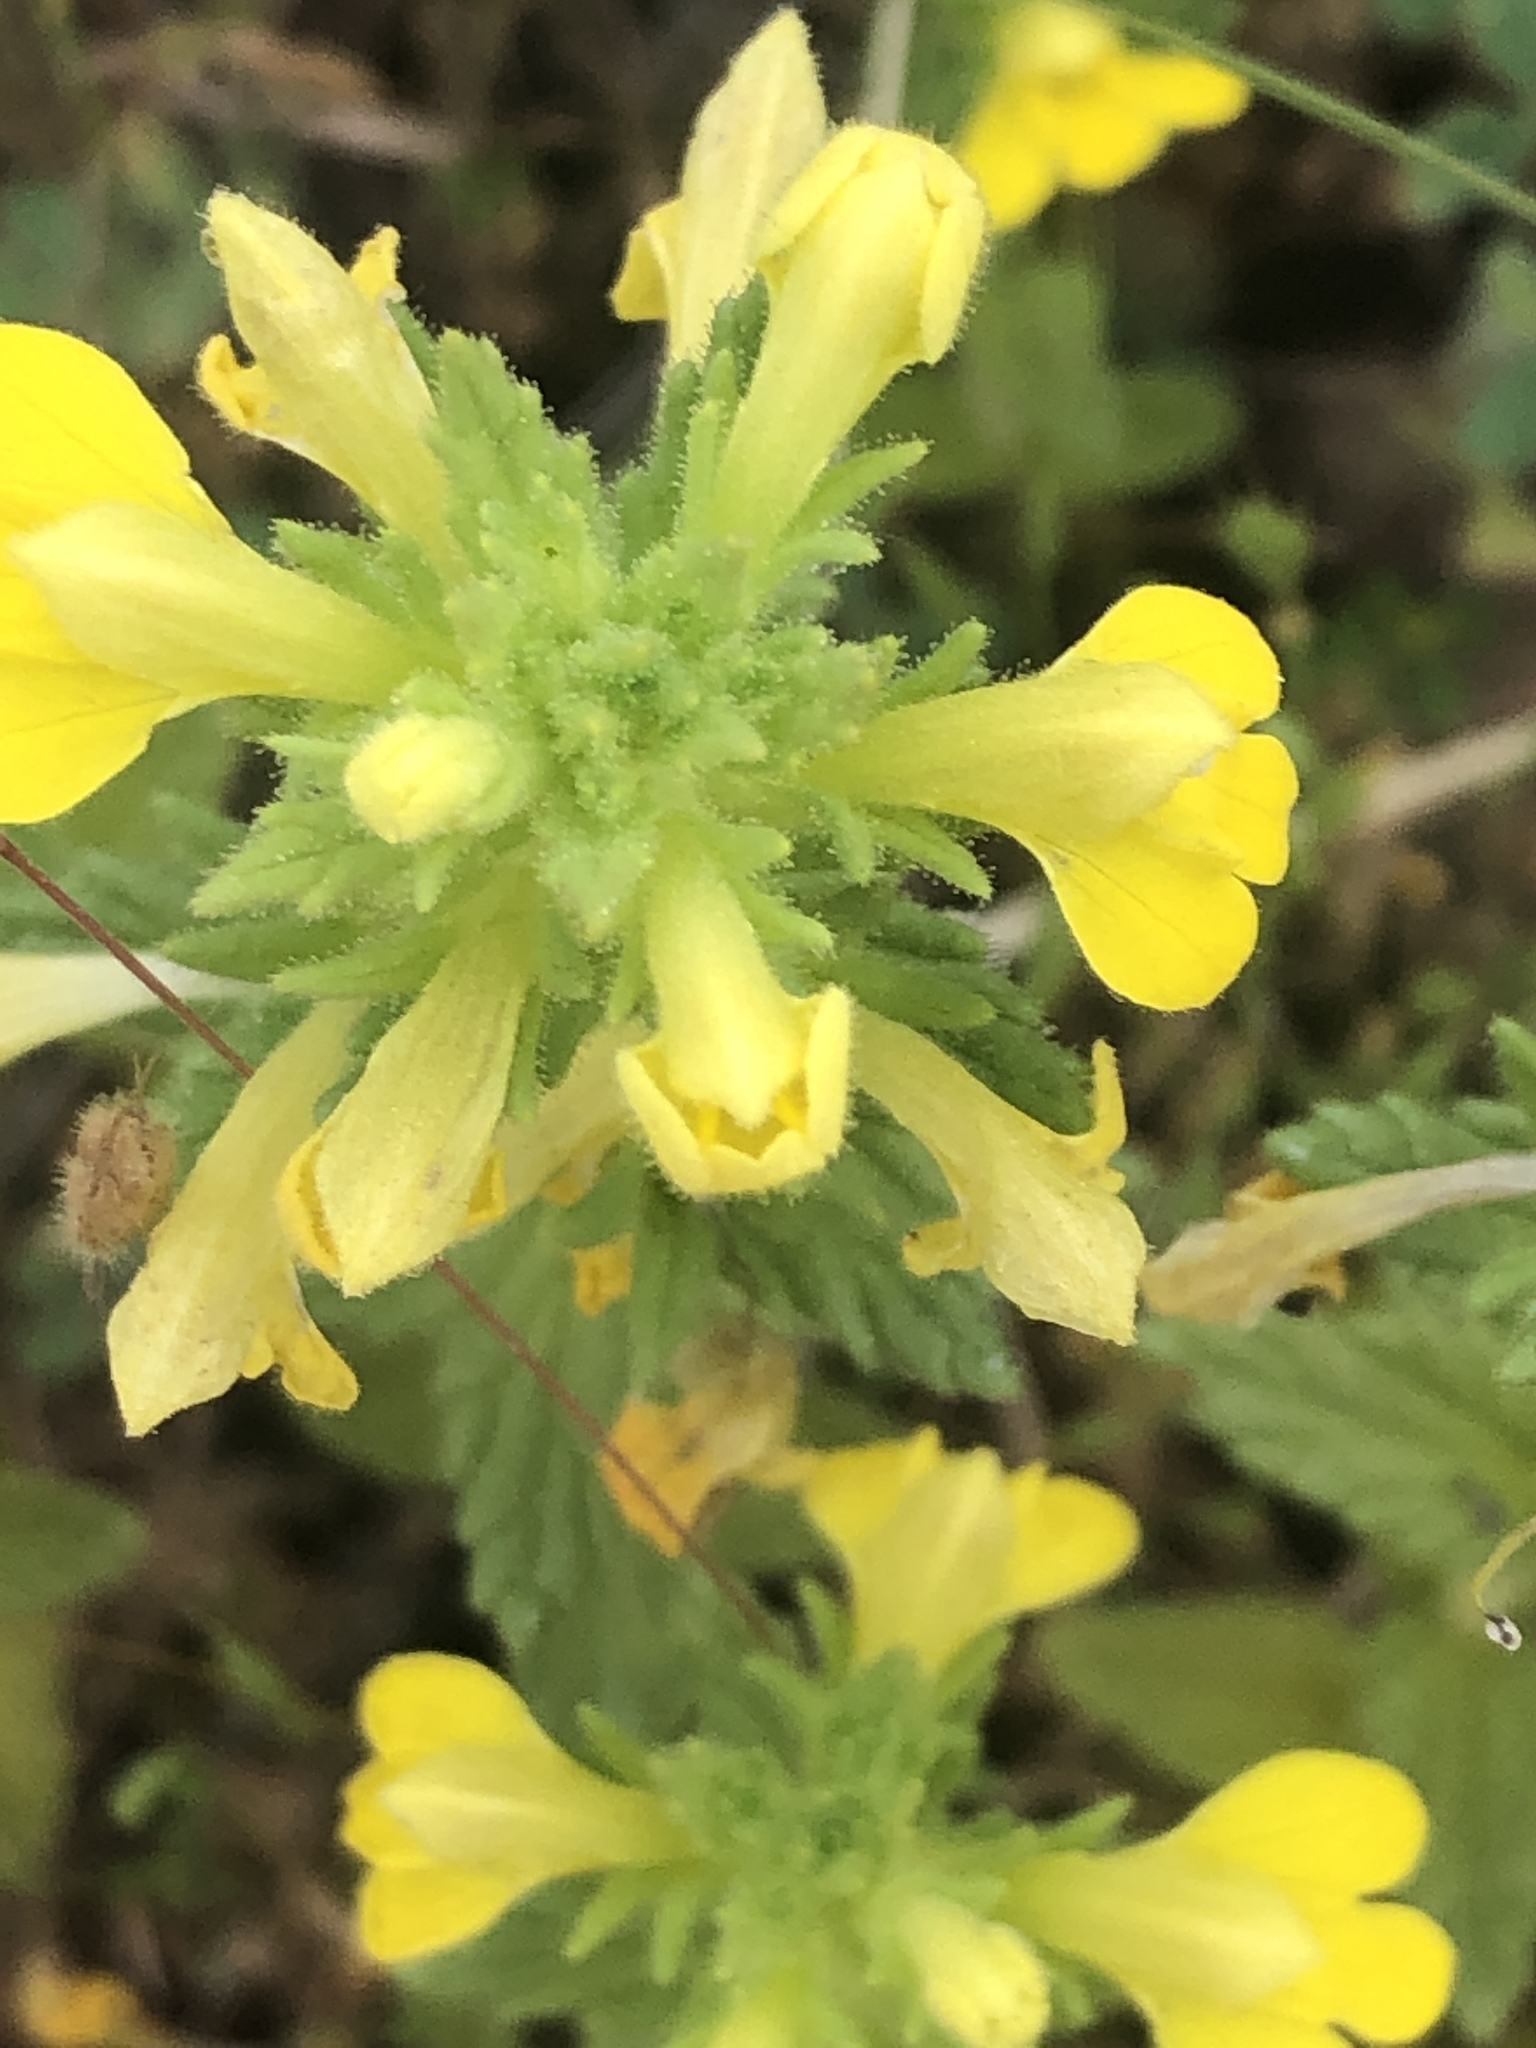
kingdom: Plantae
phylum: Tracheophyta
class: Magnoliopsida
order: Lamiales
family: Orobanchaceae
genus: Bellardia
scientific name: Bellardia viscosa
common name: Sticky parentucellia
